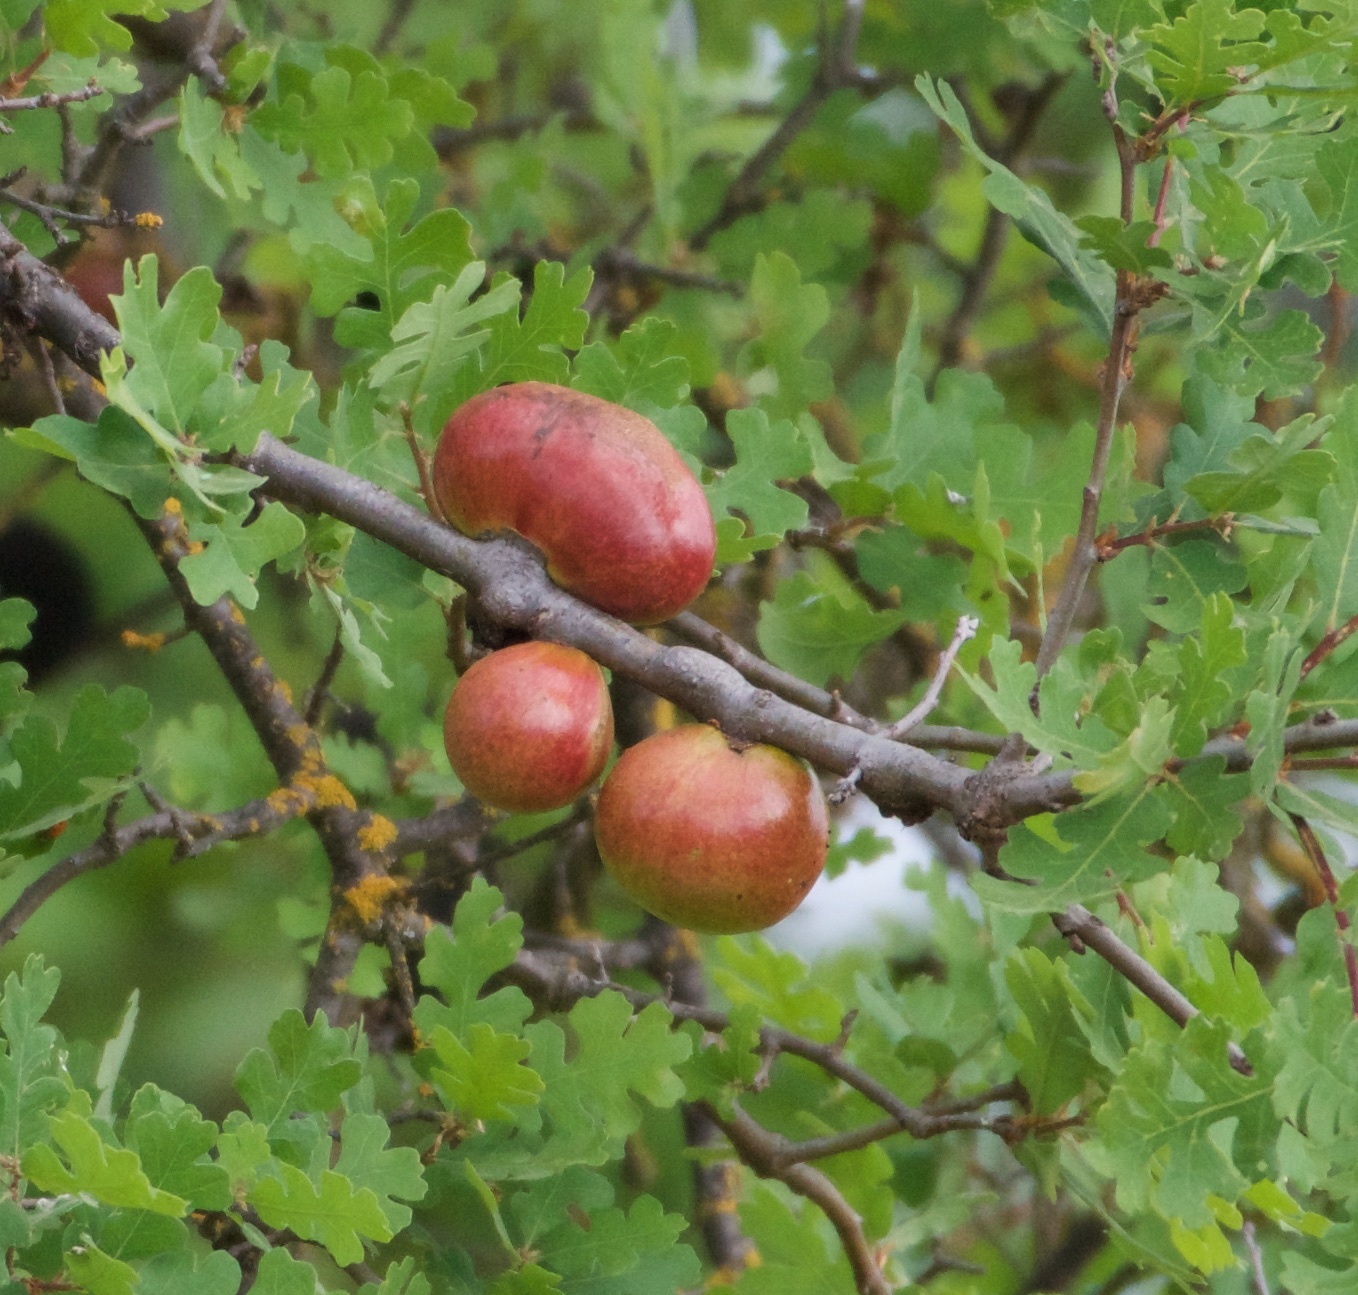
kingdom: Animalia
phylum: Arthropoda
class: Insecta
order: Hymenoptera
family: Cynipidae
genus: Andricus
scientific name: Andricus quercuscalifornicus
